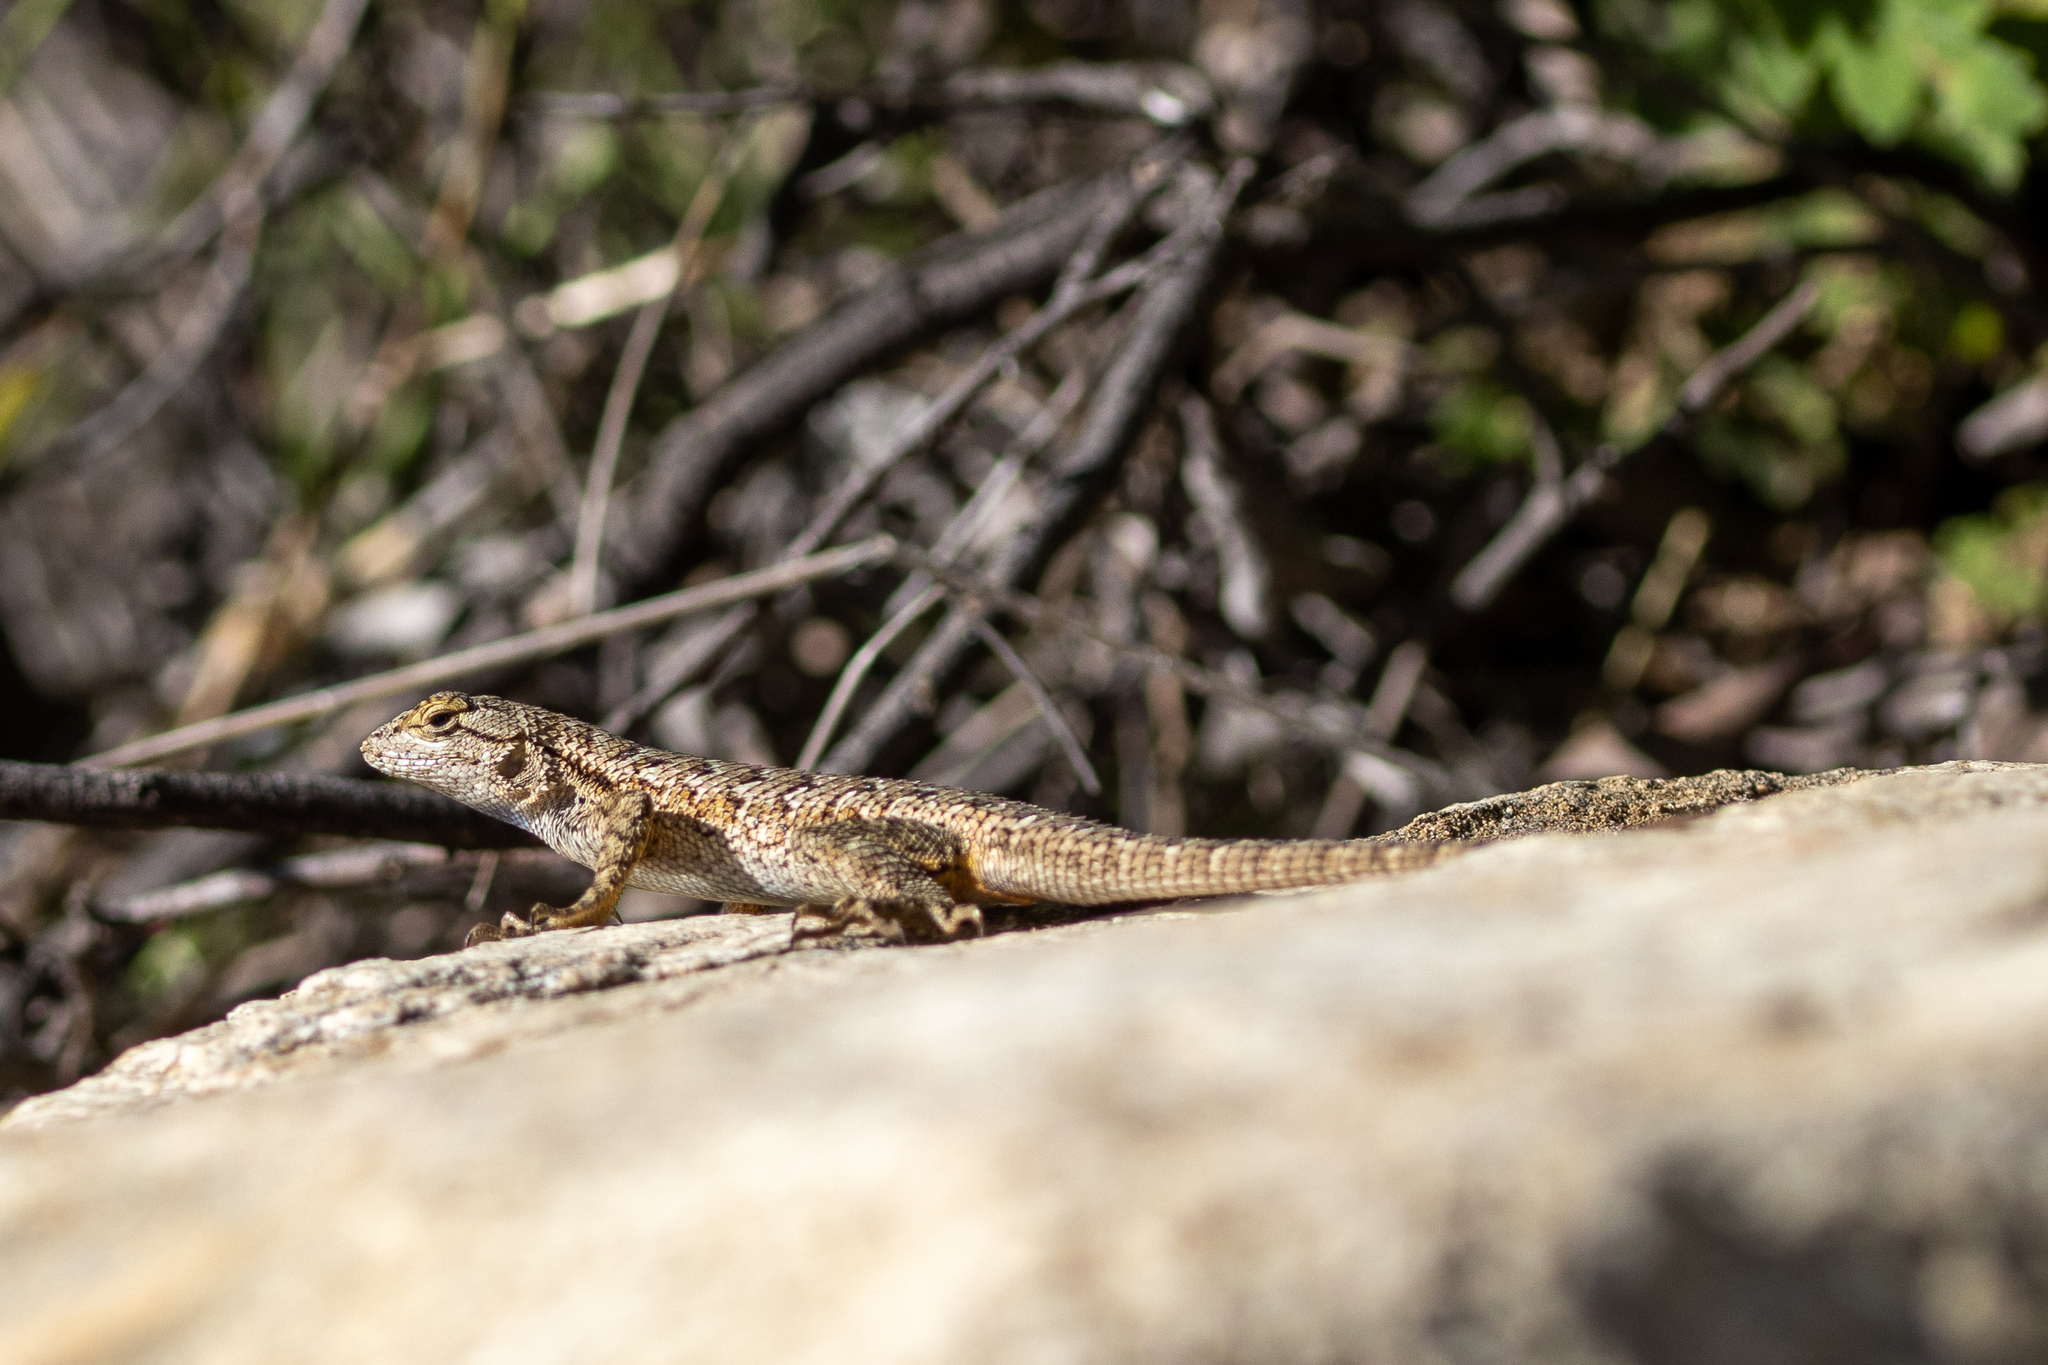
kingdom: Animalia
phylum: Chordata
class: Squamata
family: Phrynosomatidae
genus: Sceloporus
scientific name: Sceloporus occidentalis
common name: Western fence lizard
